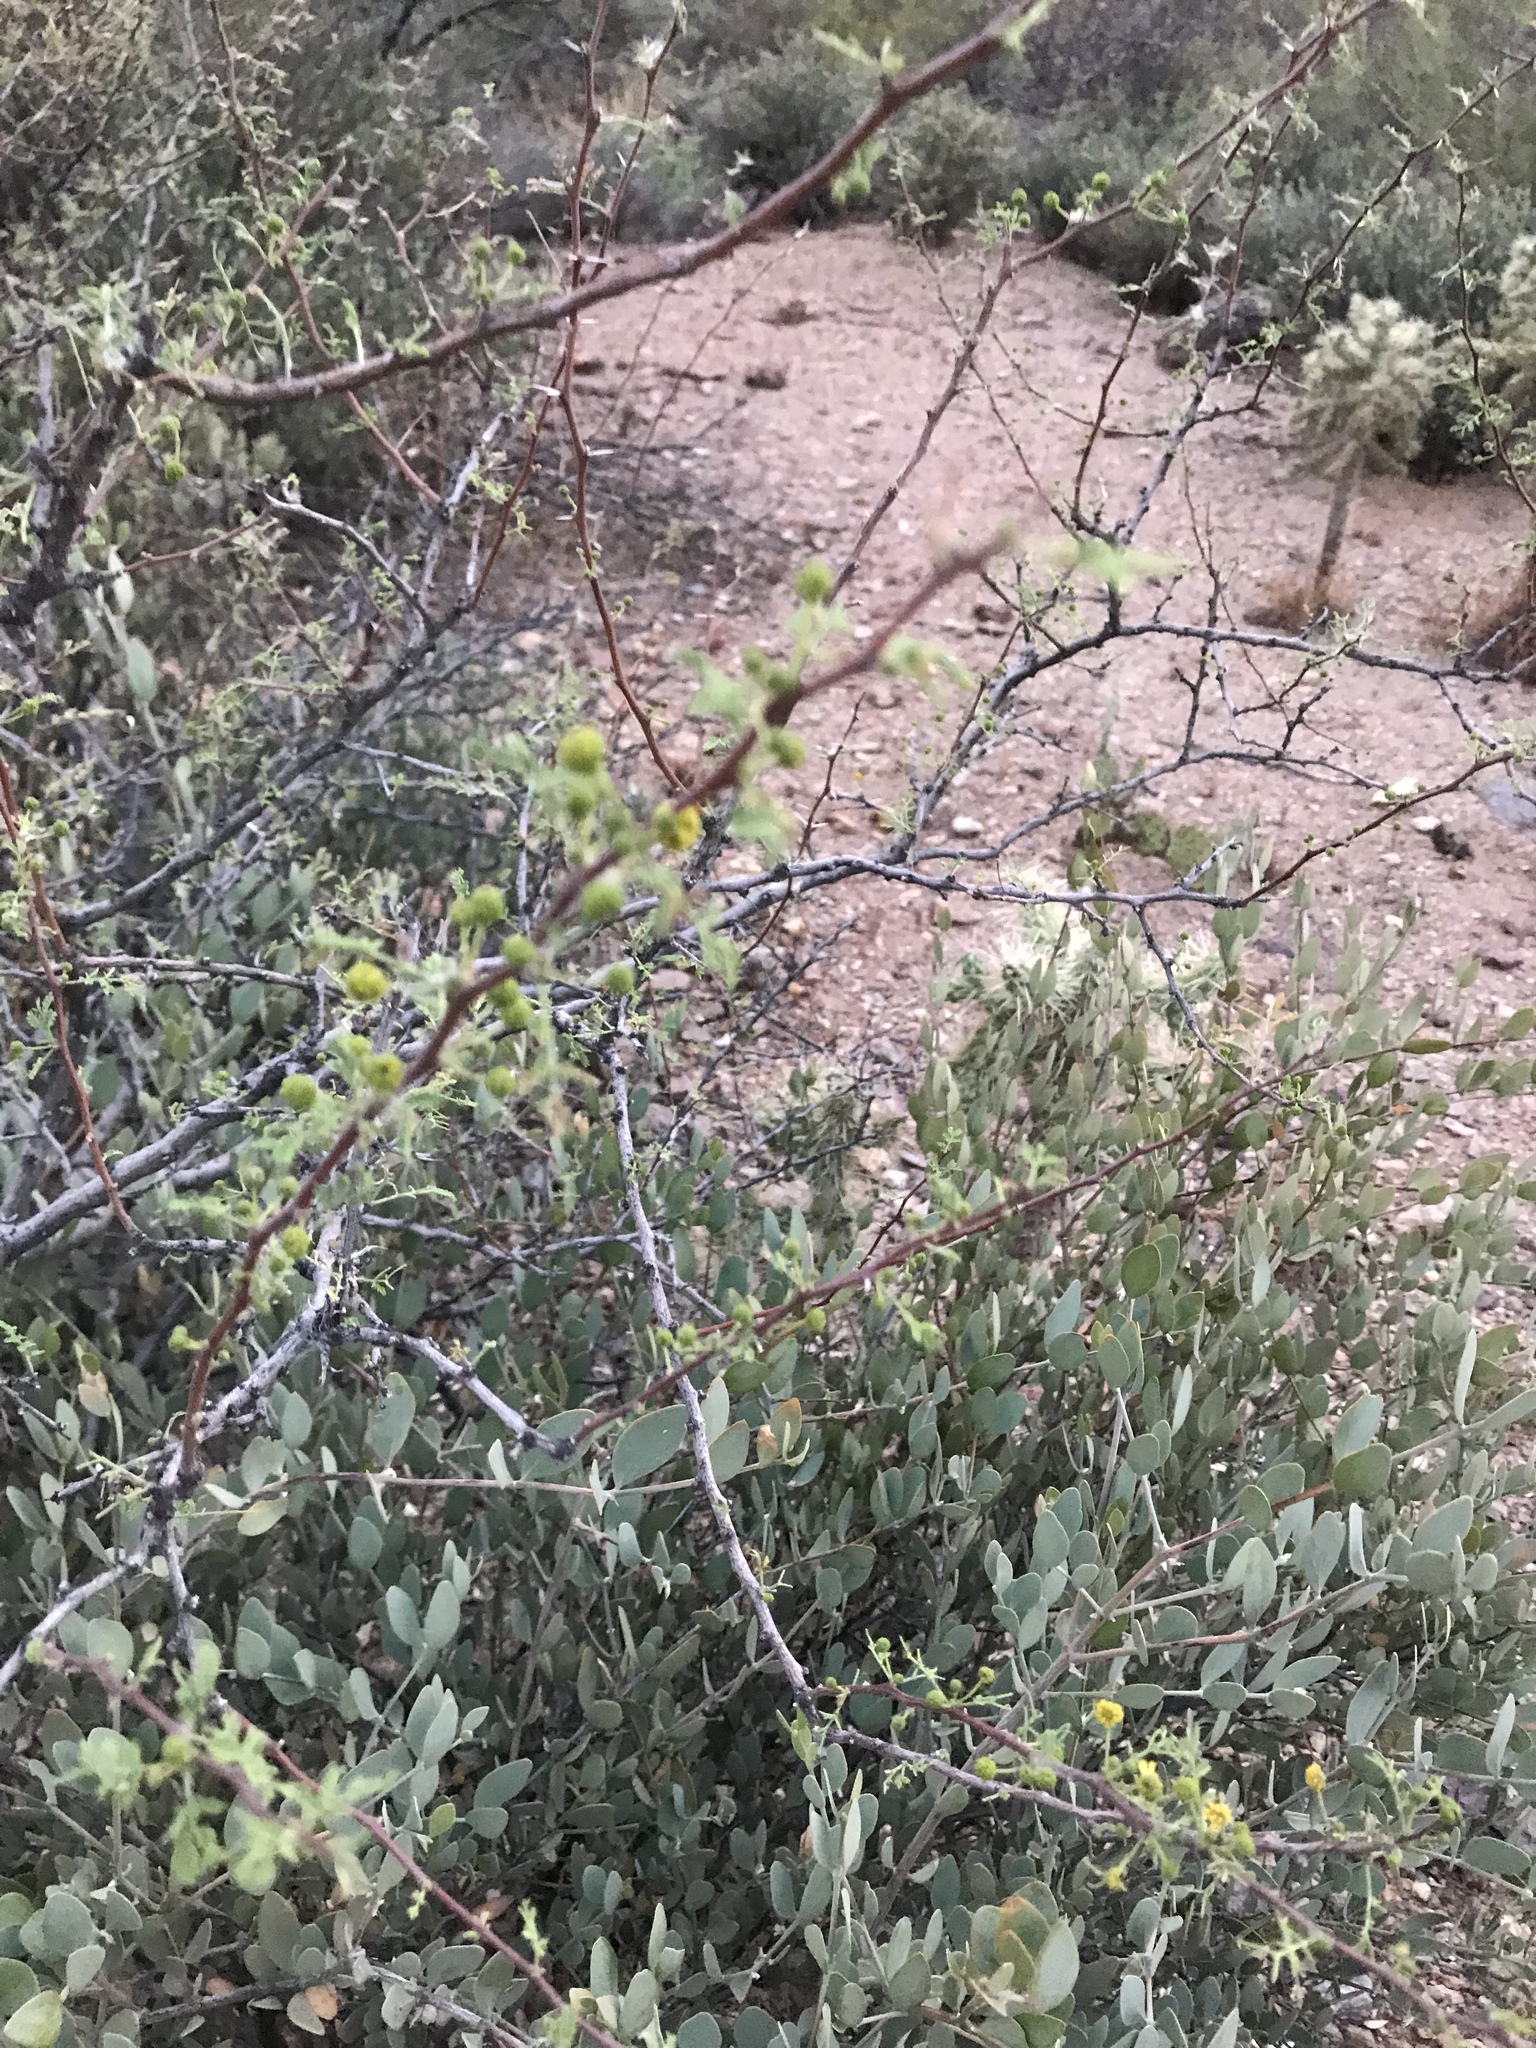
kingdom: Plantae
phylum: Tracheophyta
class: Magnoliopsida
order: Fabales
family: Fabaceae
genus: Vachellia
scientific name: Vachellia constricta
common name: Mescat acacia
